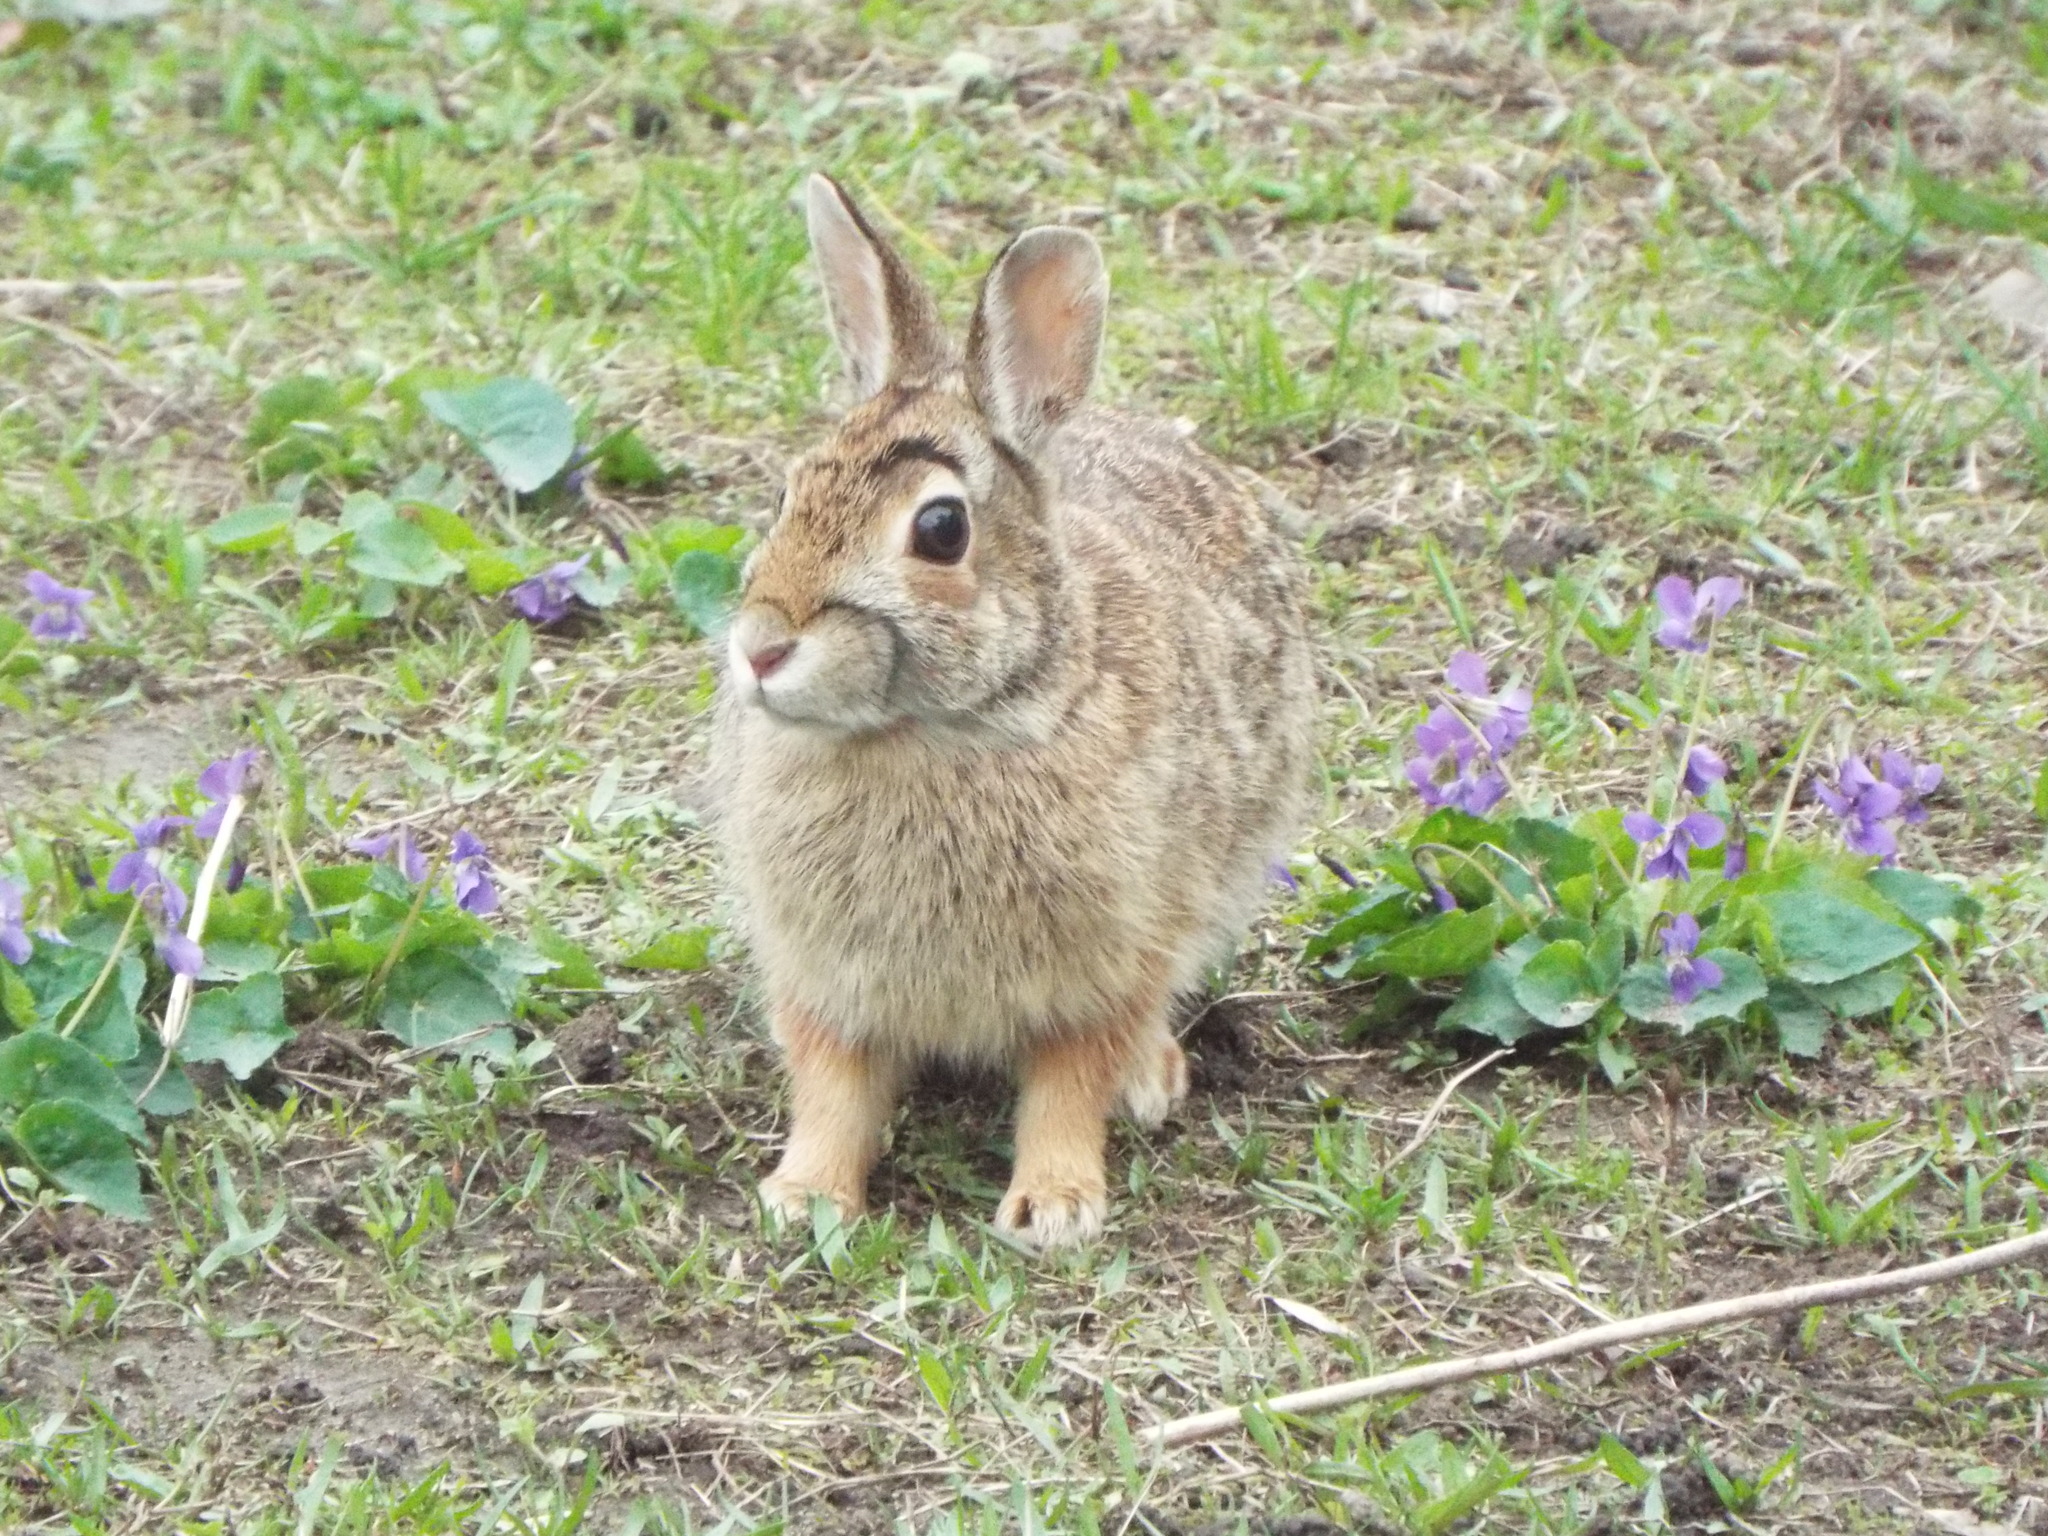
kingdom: Animalia
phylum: Chordata
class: Mammalia
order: Lagomorpha
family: Leporidae
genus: Sylvilagus
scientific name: Sylvilagus floridanus
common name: Eastern cottontail
